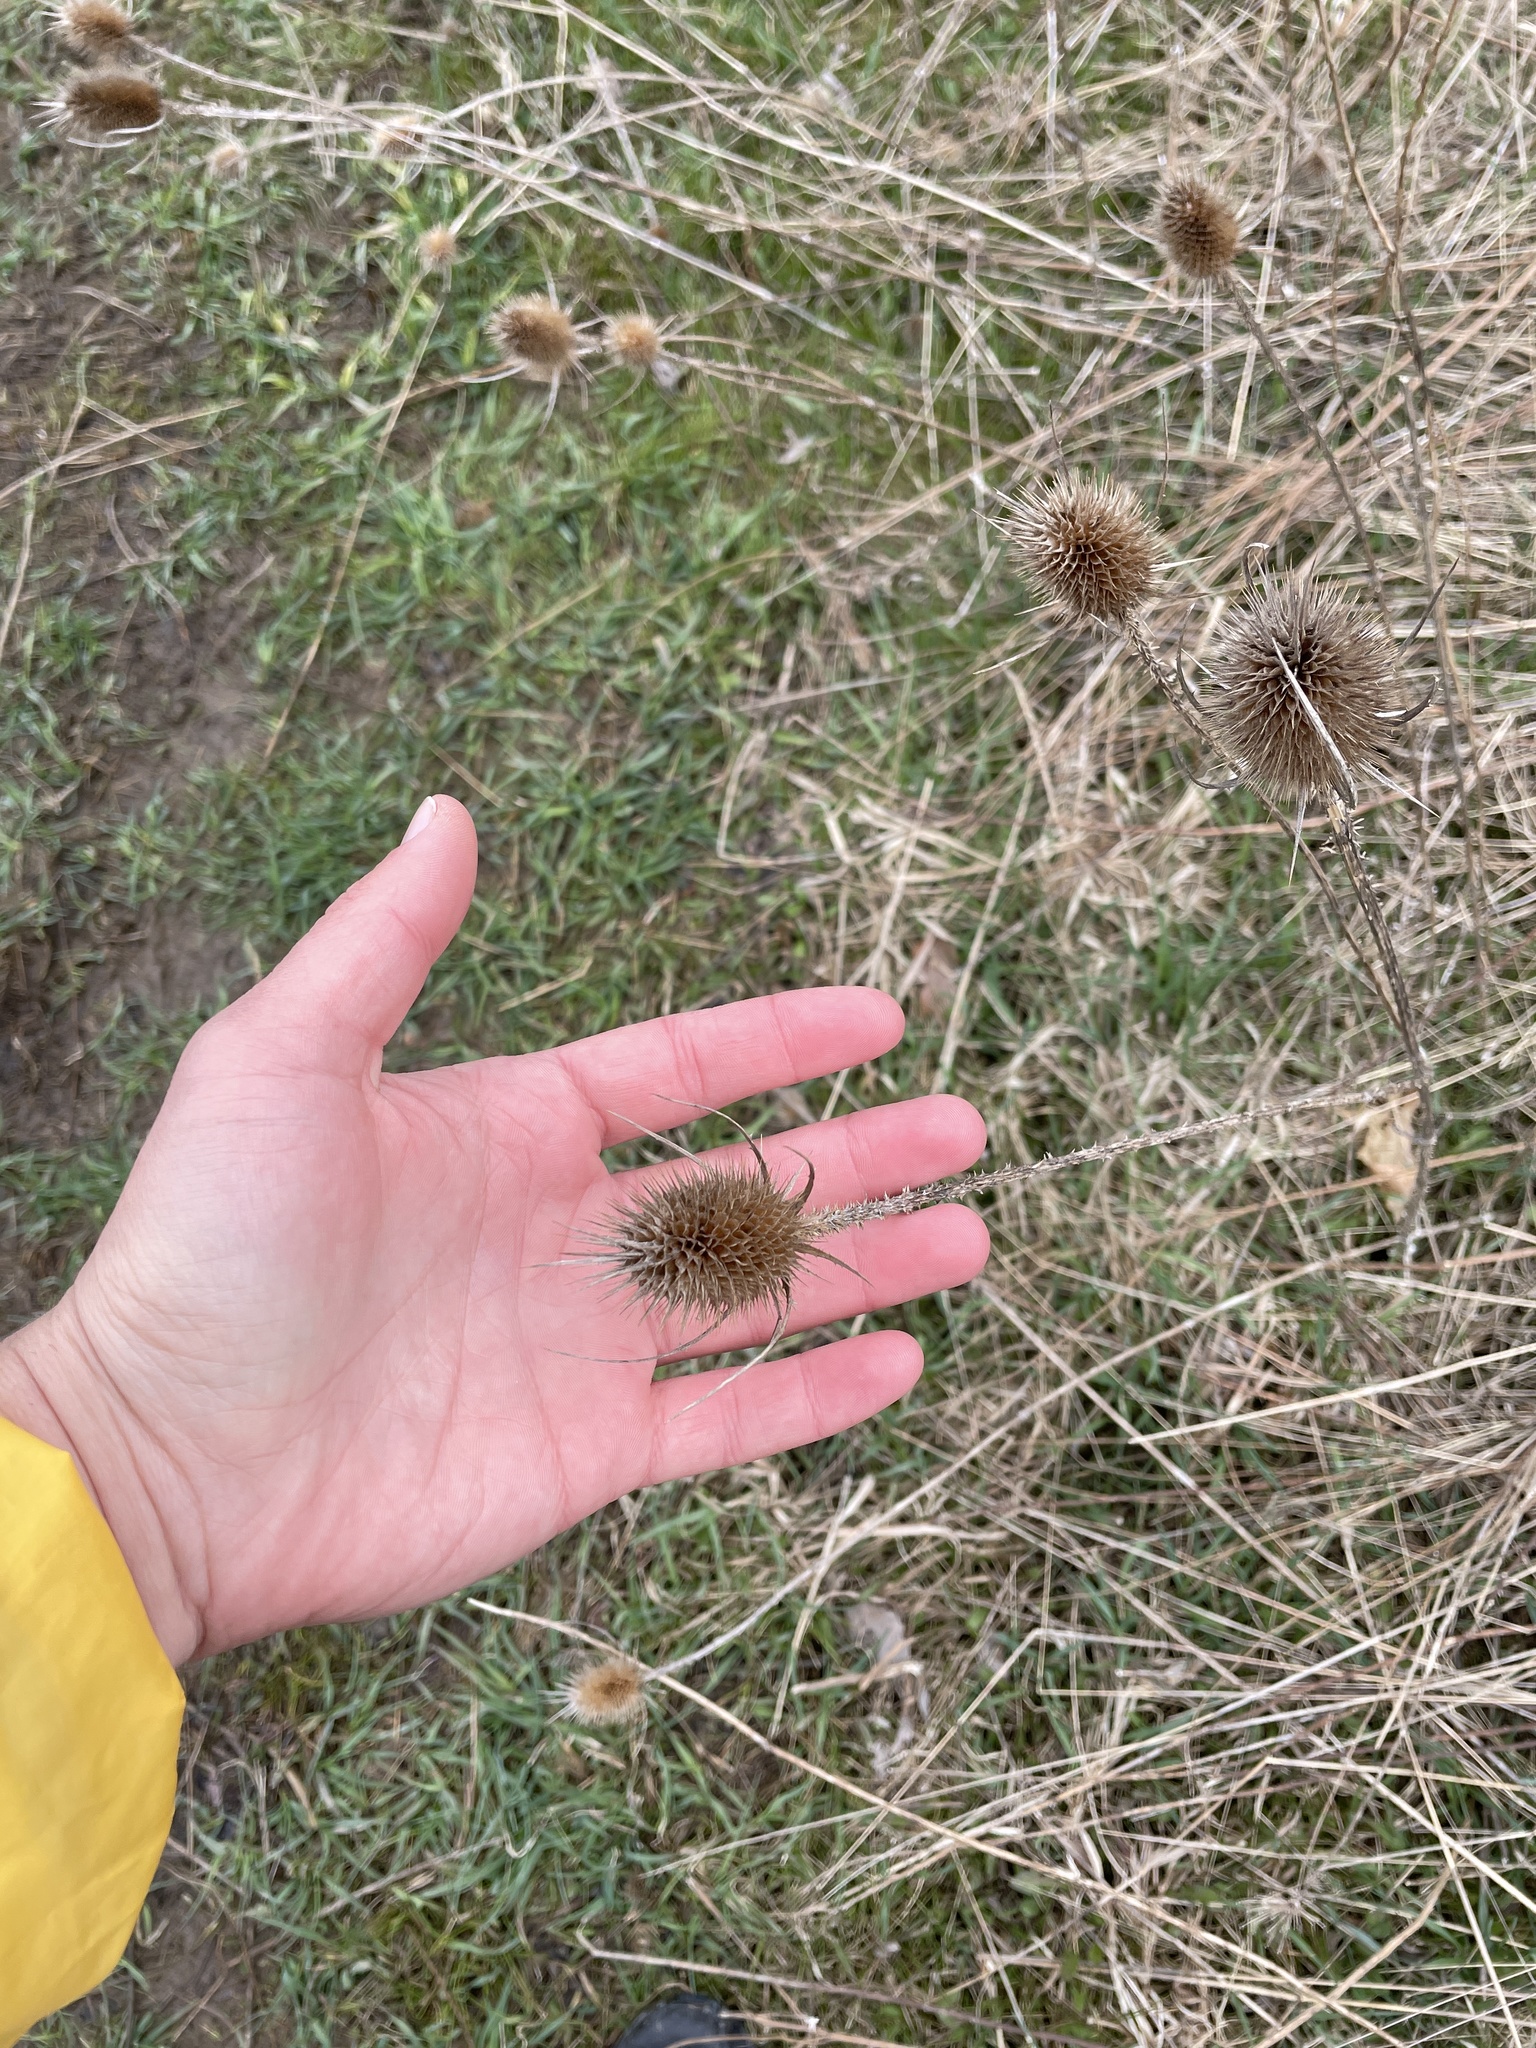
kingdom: Plantae
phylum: Tracheophyta
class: Magnoliopsida
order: Dipsacales
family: Caprifoliaceae
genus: Dipsacus
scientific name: Dipsacus fullonum
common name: Teasel
